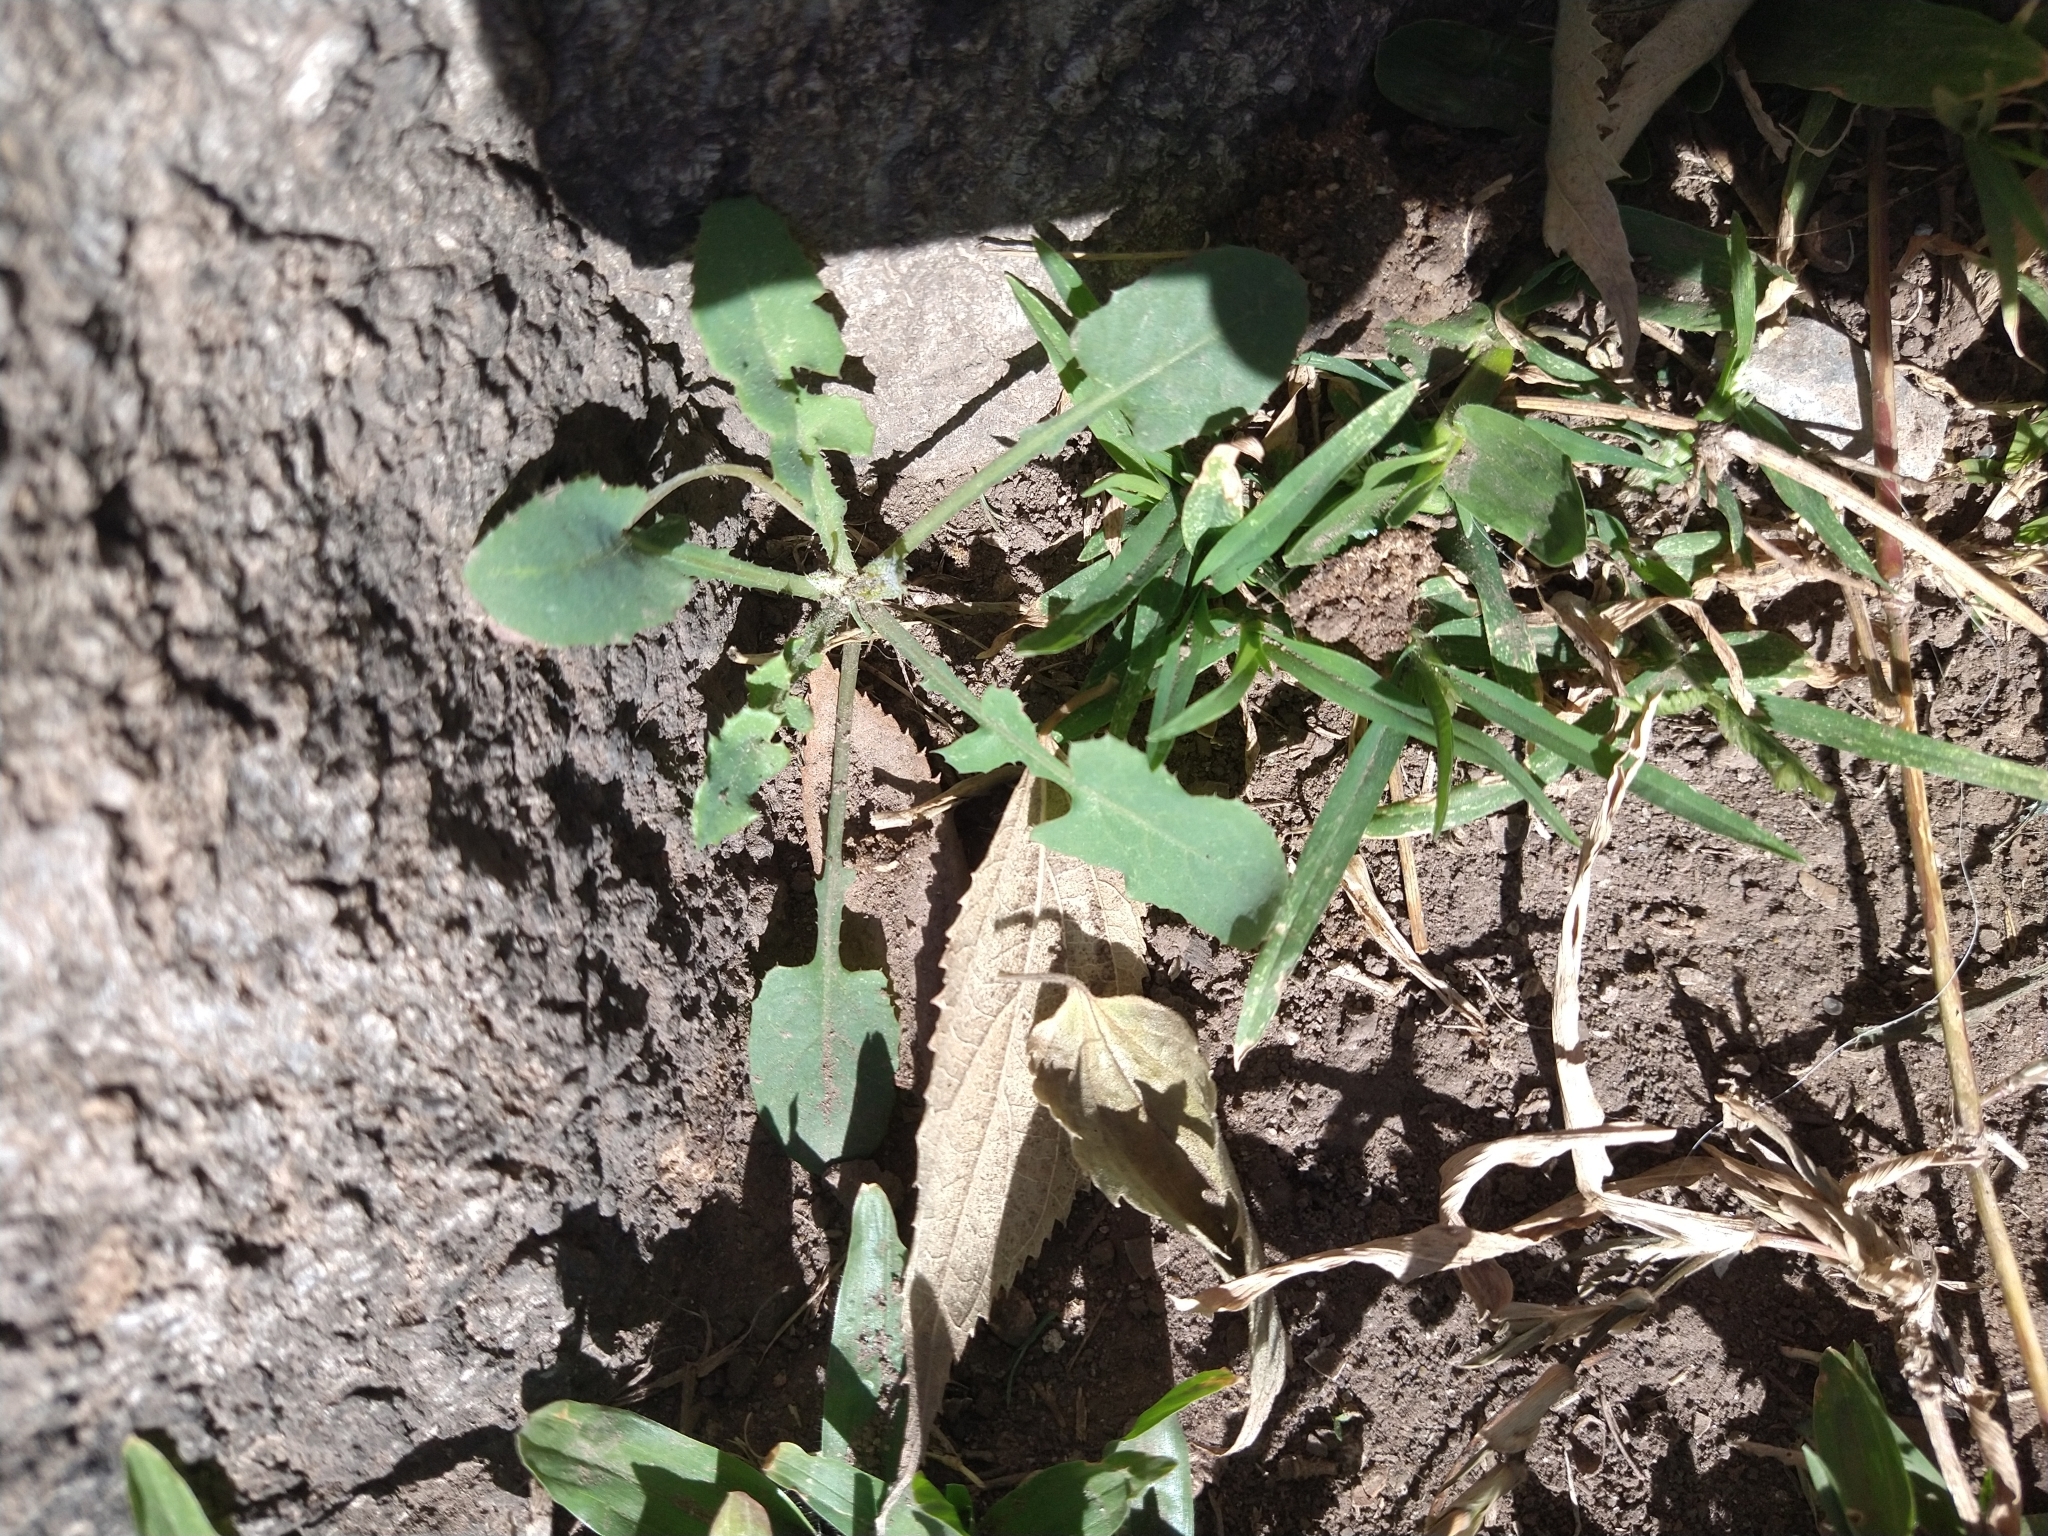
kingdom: Plantae
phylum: Tracheophyta
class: Magnoliopsida
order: Asterales
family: Asteraceae
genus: Sonchus
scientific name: Sonchus oleraceus
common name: Common sowthistle
